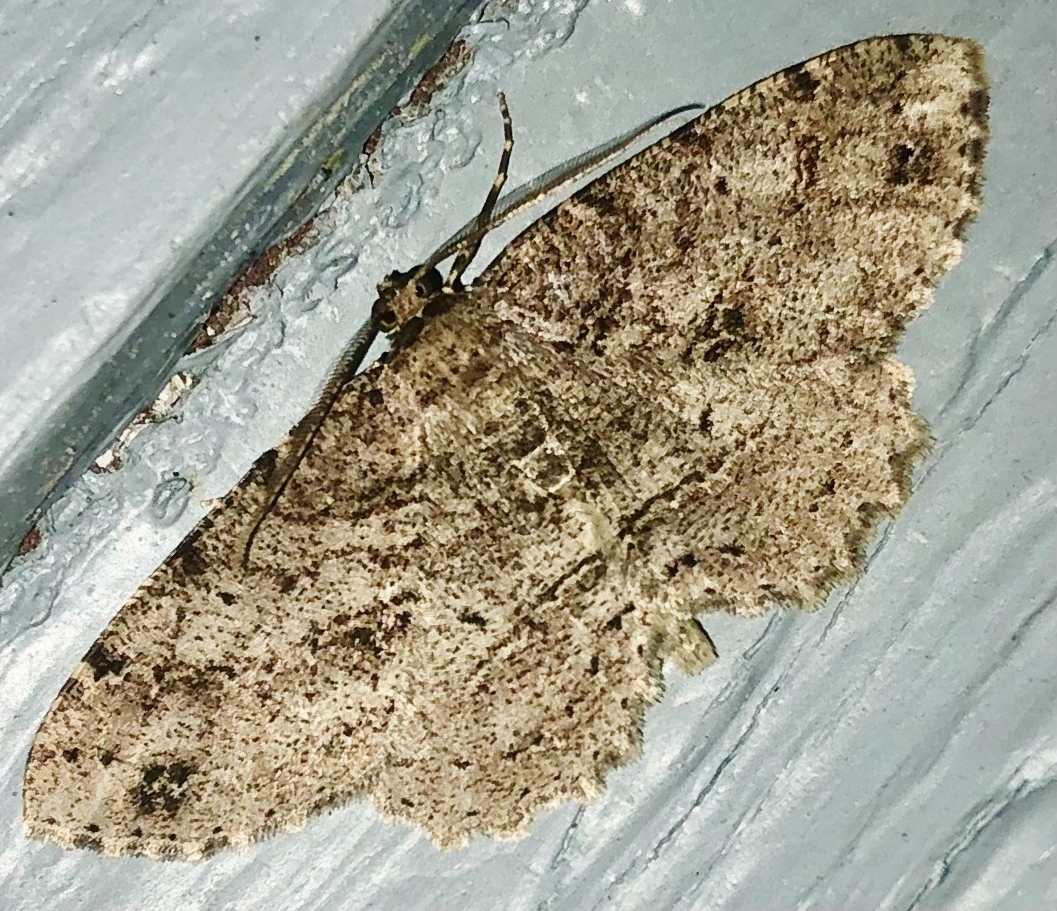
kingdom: Animalia
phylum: Arthropoda
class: Insecta
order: Lepidoptera
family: Geometridae
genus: Melanolophia
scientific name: Melanolophia canadaria
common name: Canadian melanolophia
